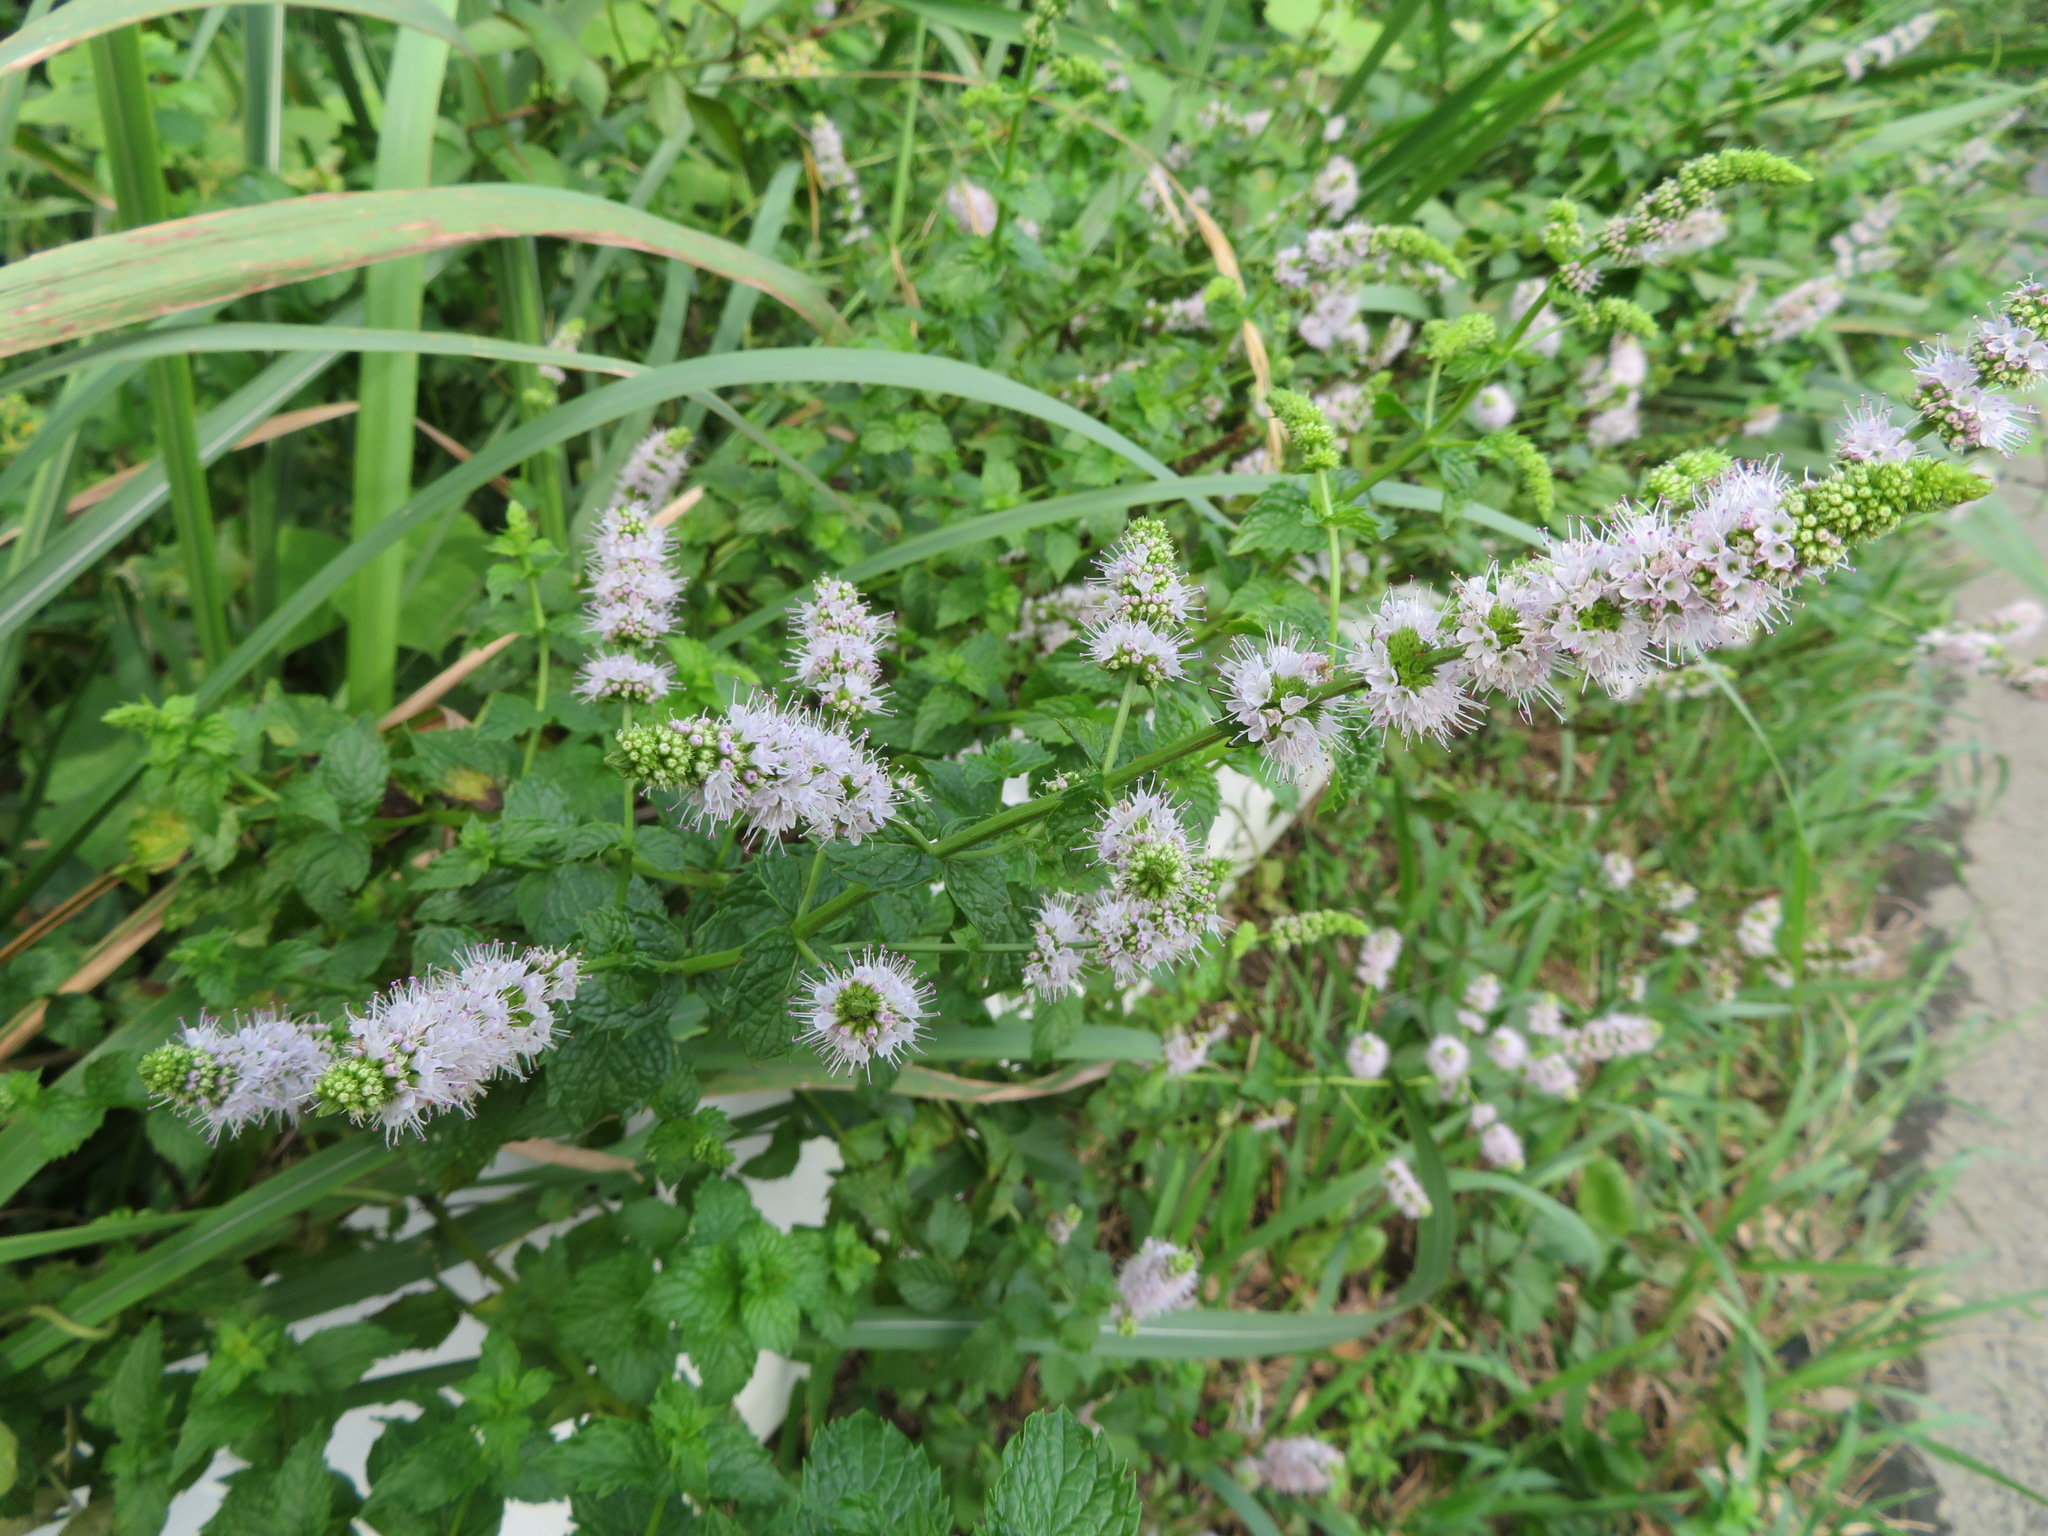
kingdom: Plantae
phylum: Tracheophyta
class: Magnoliopsida
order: Lamiales
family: Lamiaceae
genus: Mentha
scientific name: Mentha spicata
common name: Spearmint
